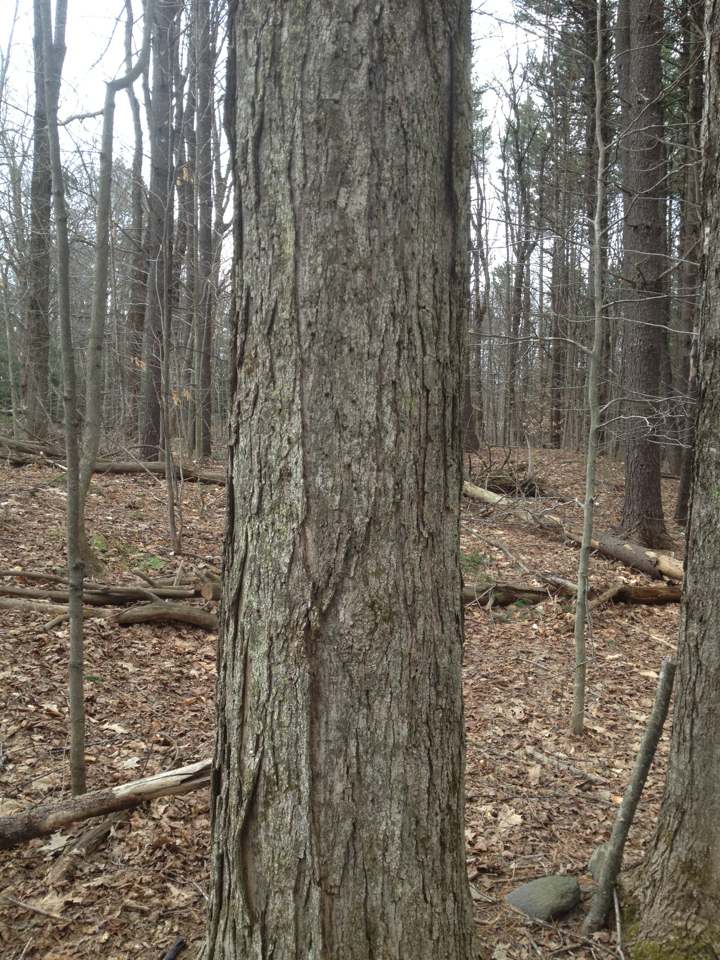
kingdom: Plantae
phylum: Tracheophyta
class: Magnoliopsida
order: Sapindales
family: Sapindaceae
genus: Acer
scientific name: Acer saccharum
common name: Sugar maple
